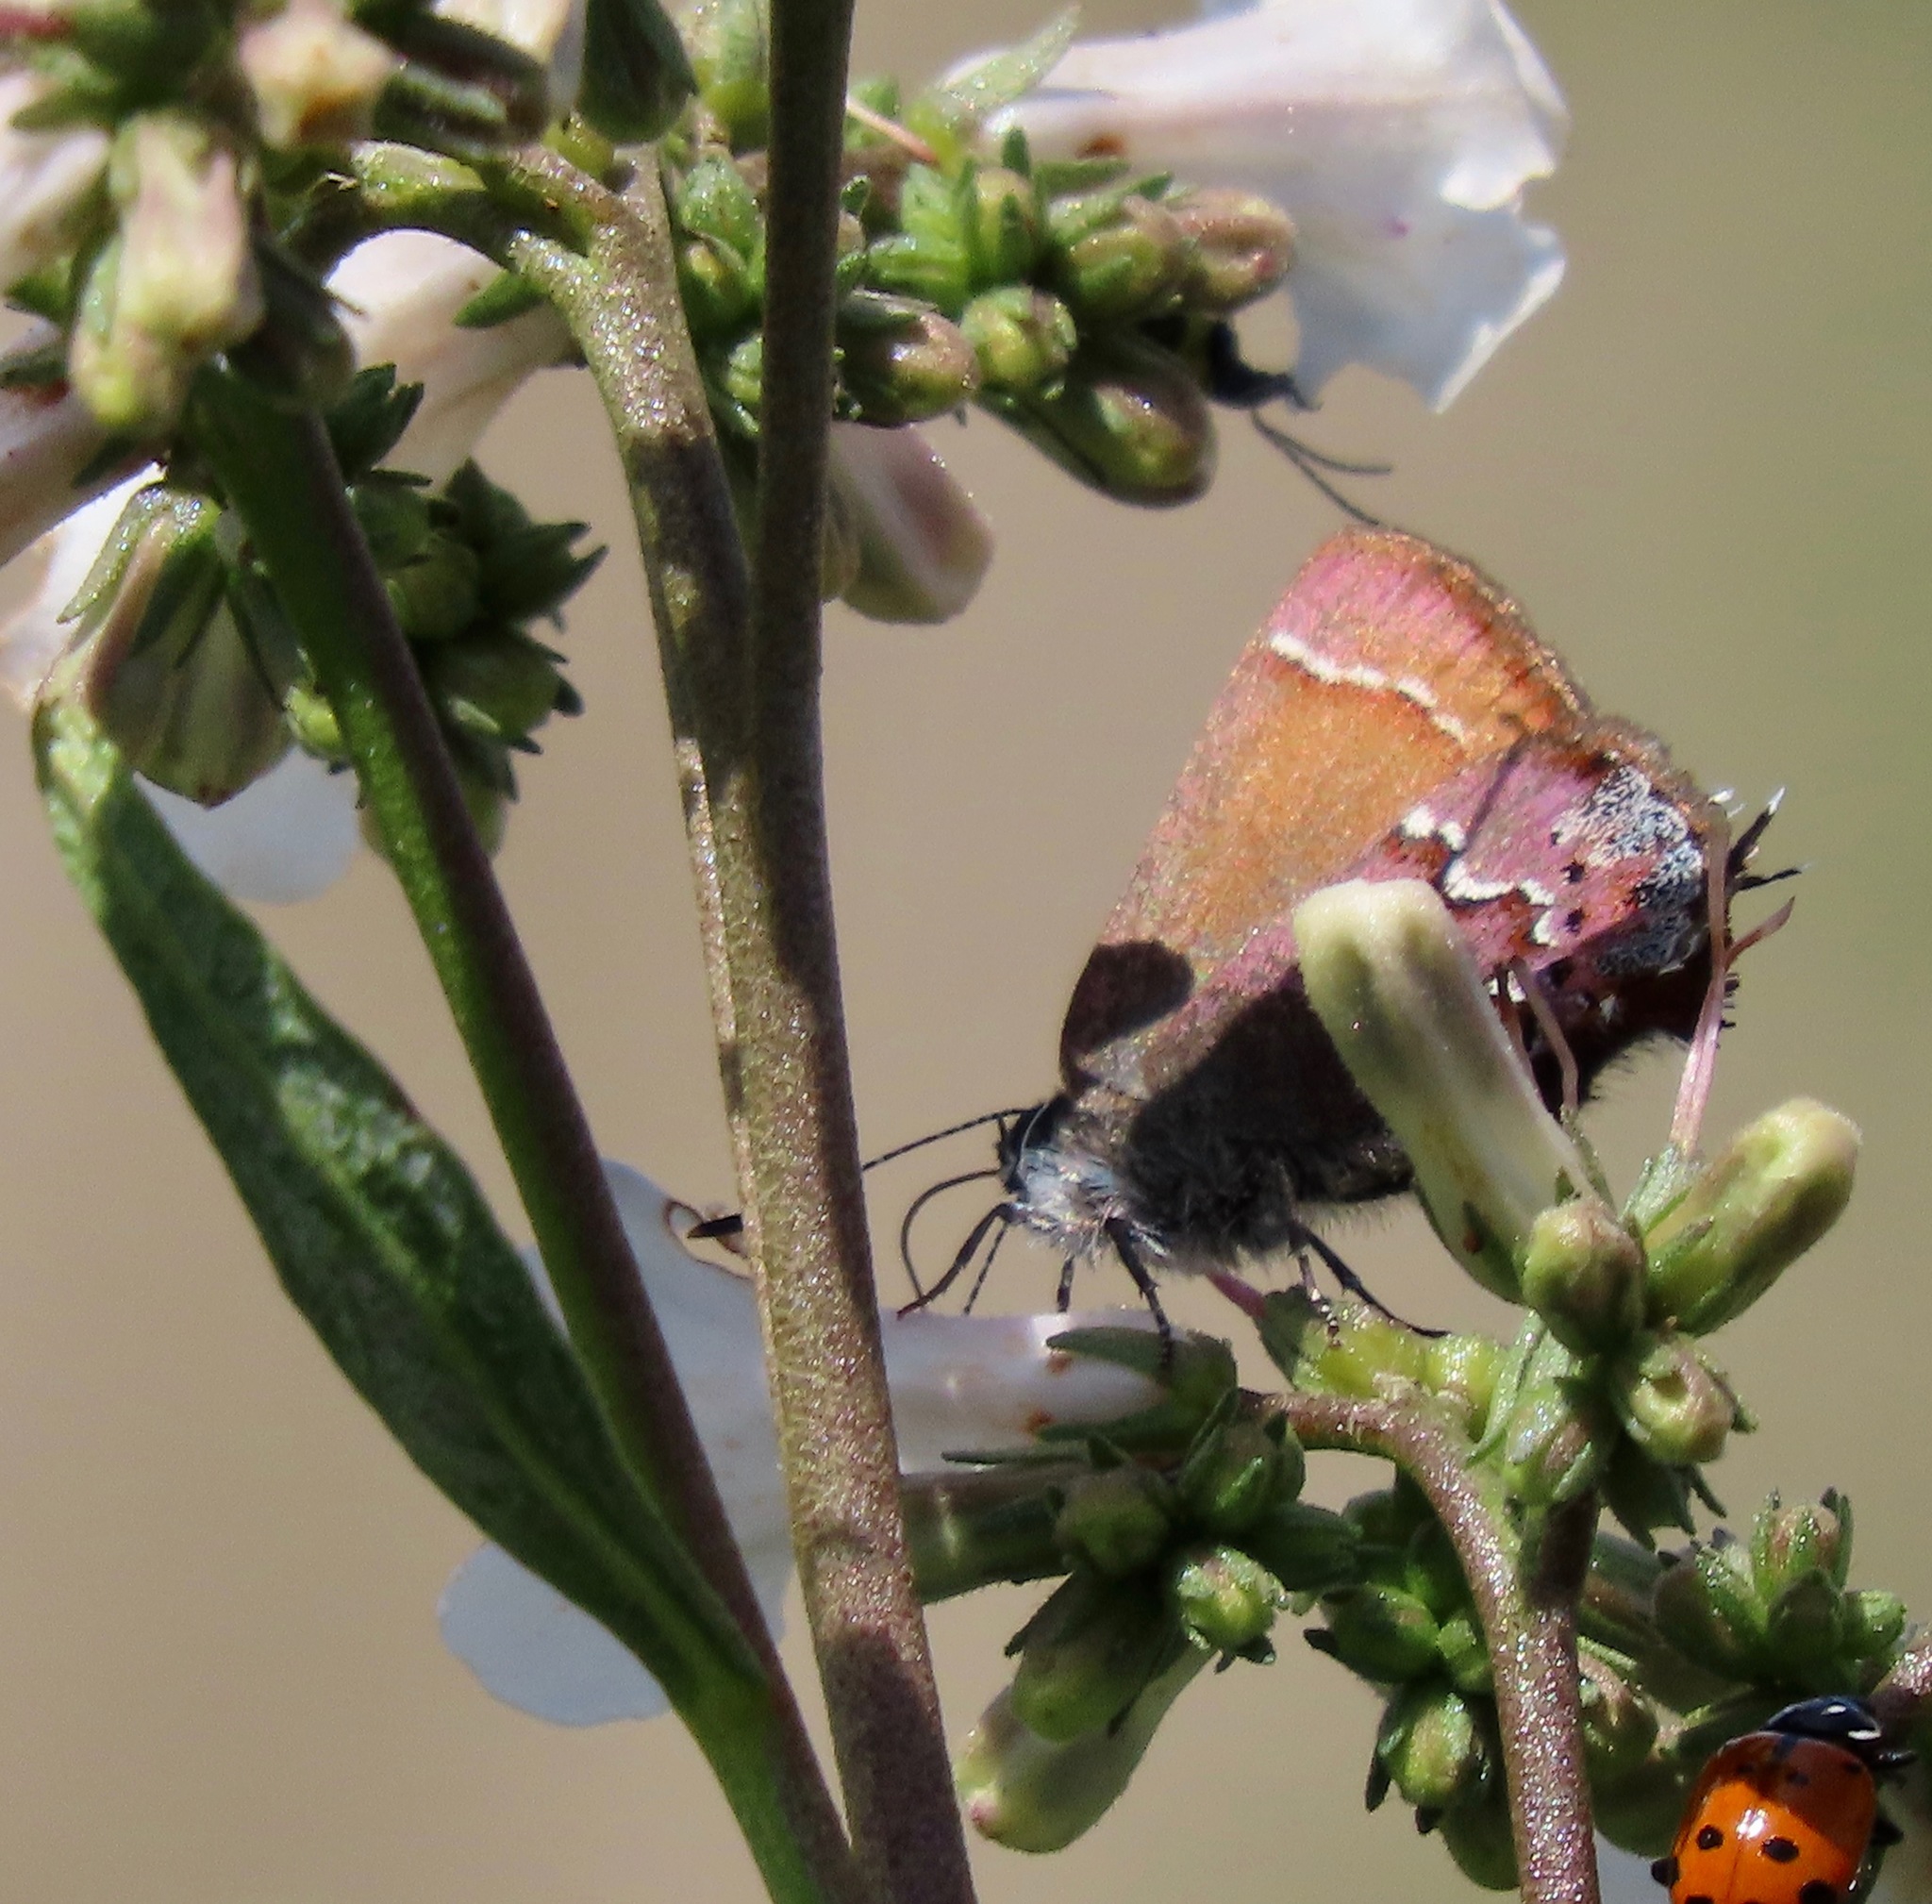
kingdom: Animalia
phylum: Arthropoda
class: Insecta
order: Lepidoptera
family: Lycaenidae
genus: Callophrys
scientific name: Callophrys muiri
